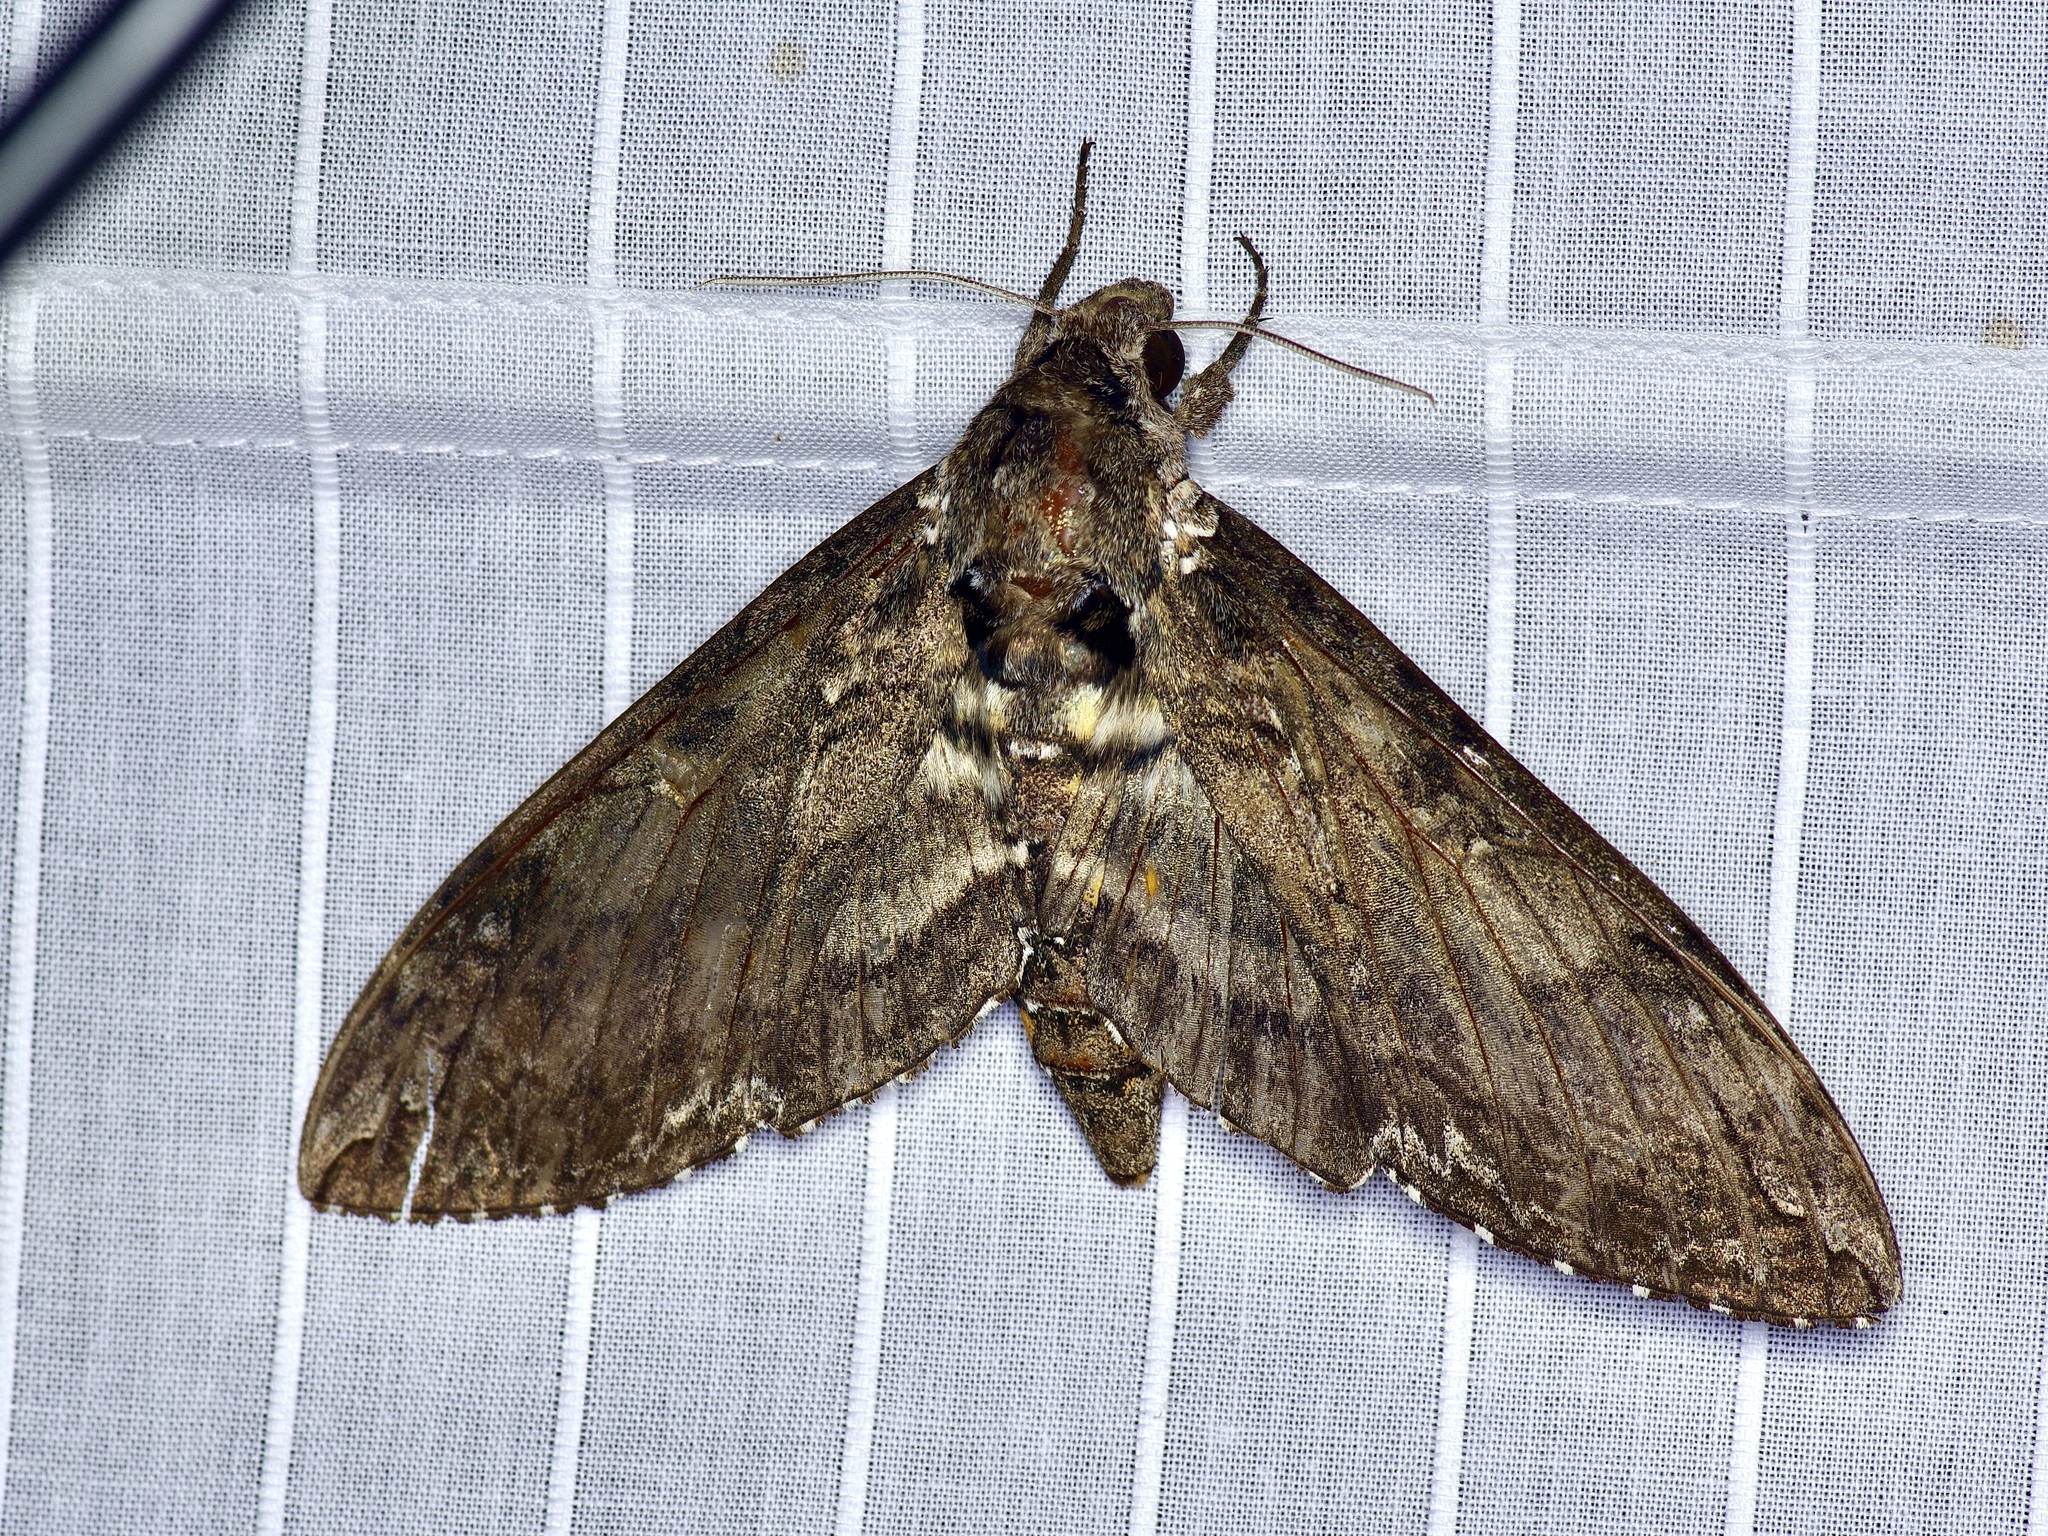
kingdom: Animalia
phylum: Arthropoda
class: Insecta
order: Lepidoptera
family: Sphingidae
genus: Manduca
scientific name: Manduca sexta
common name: Carolina sphinx
